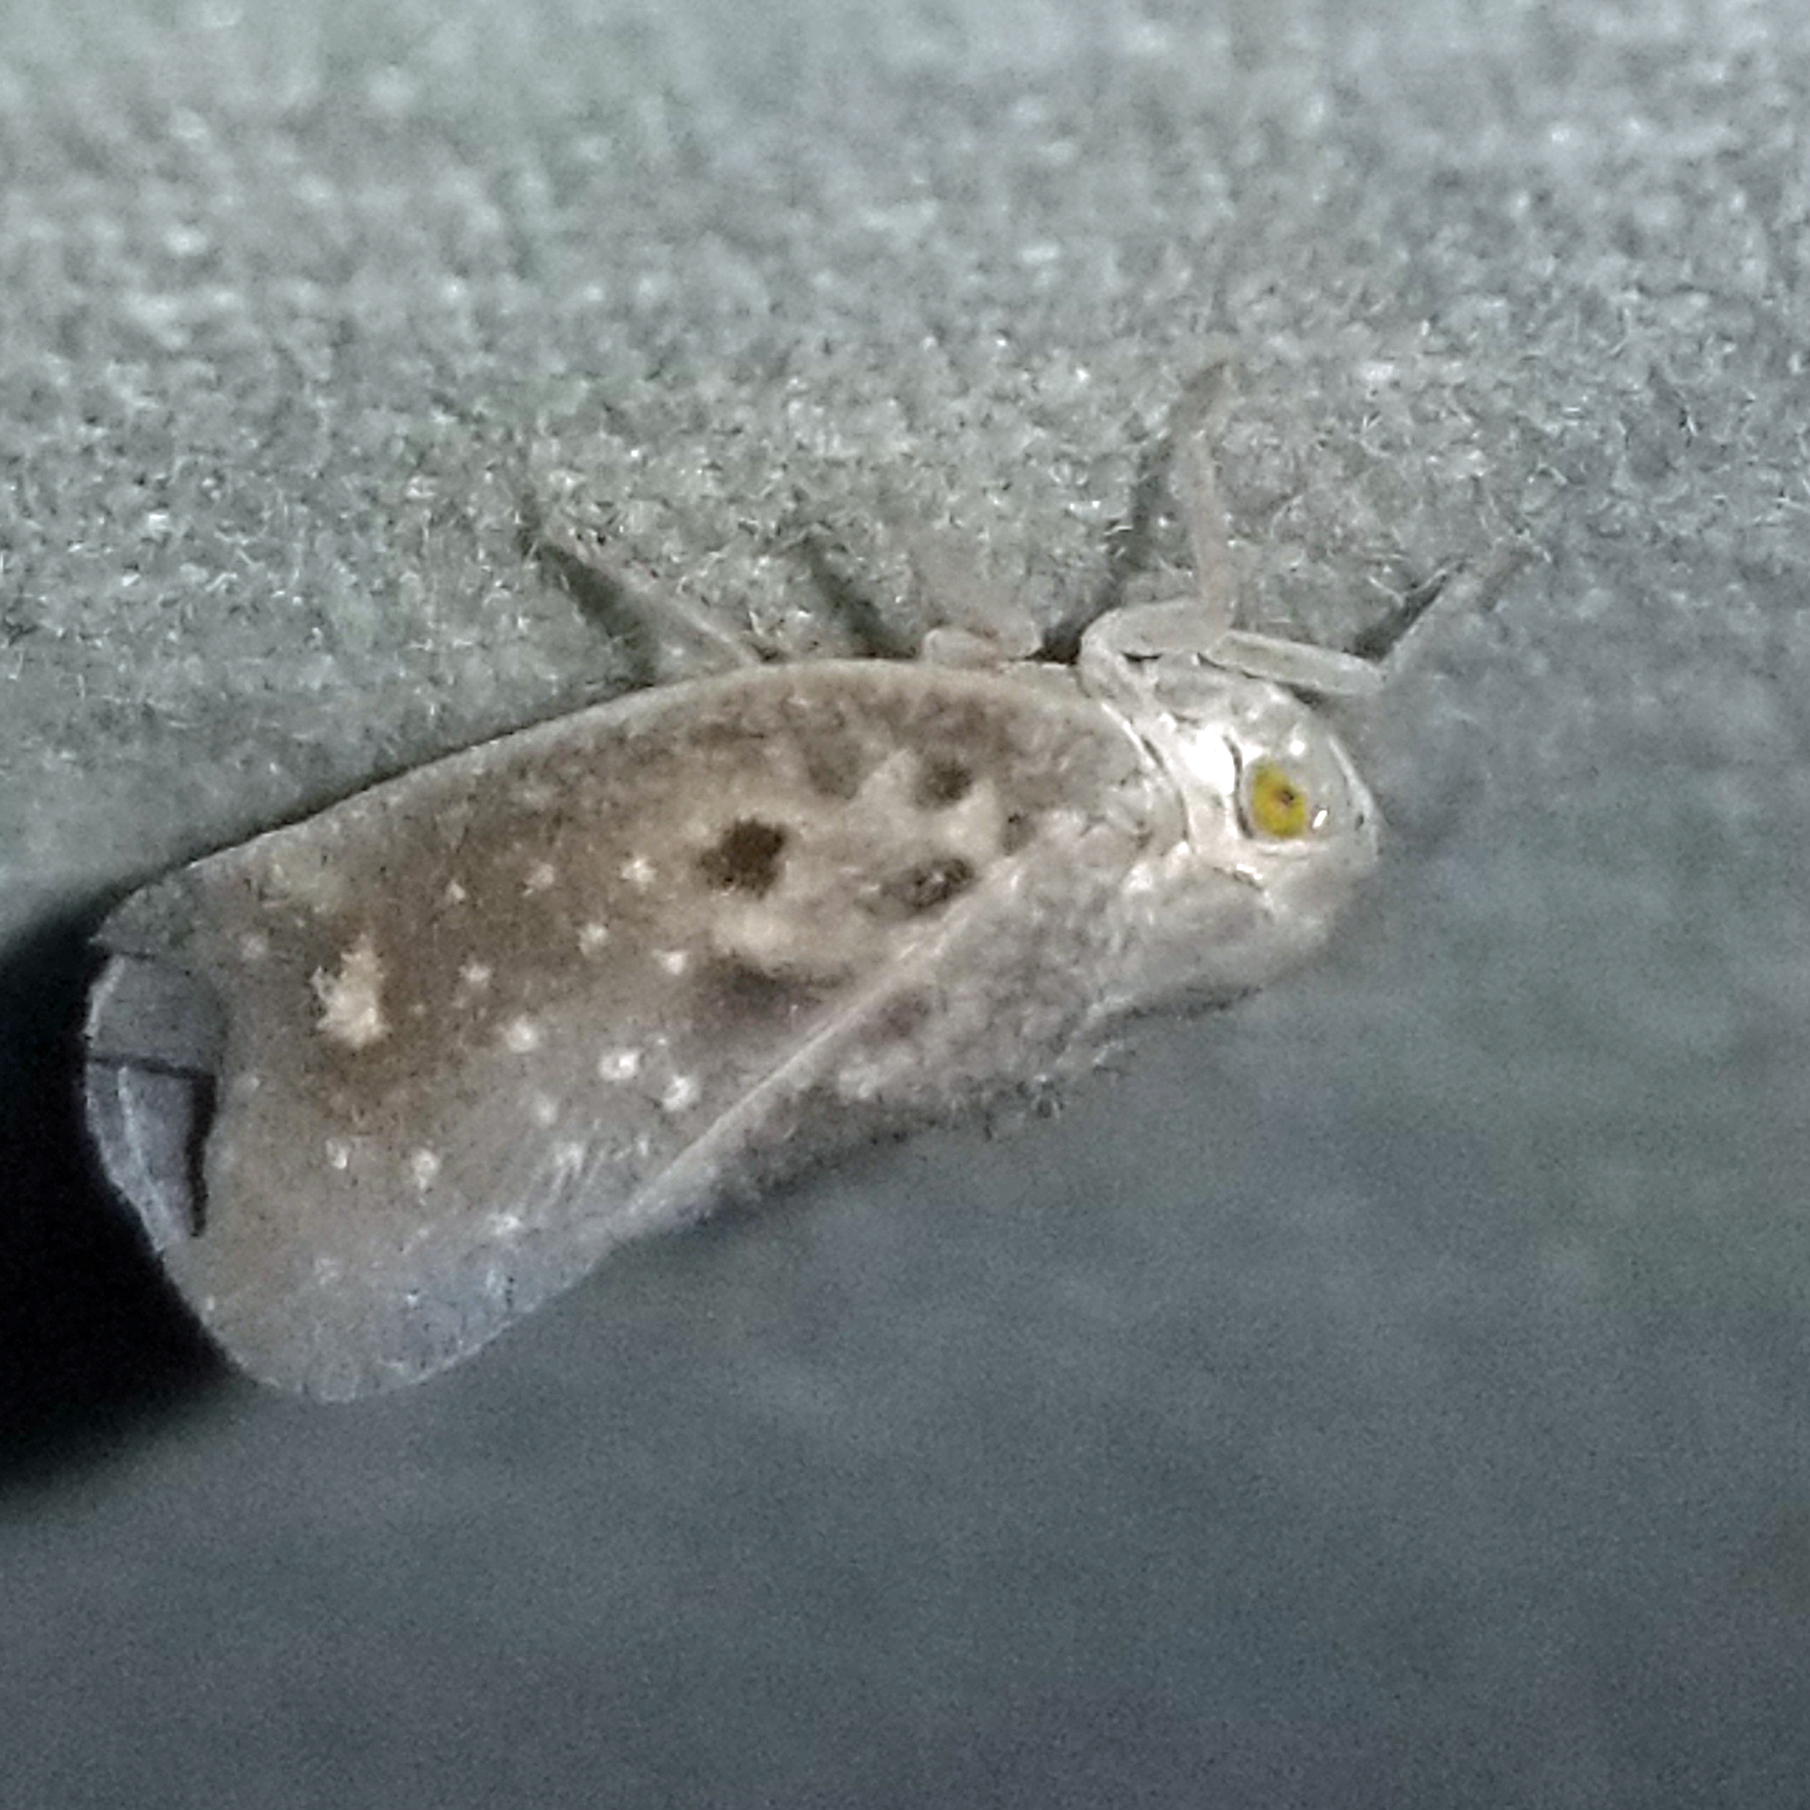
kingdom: Animalia
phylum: Arthropoda
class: Insecta
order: Hemiptera
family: Flatidae
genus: Metcalfa
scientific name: Metcalfa pruinosa
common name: Citrus flatid planthopper
